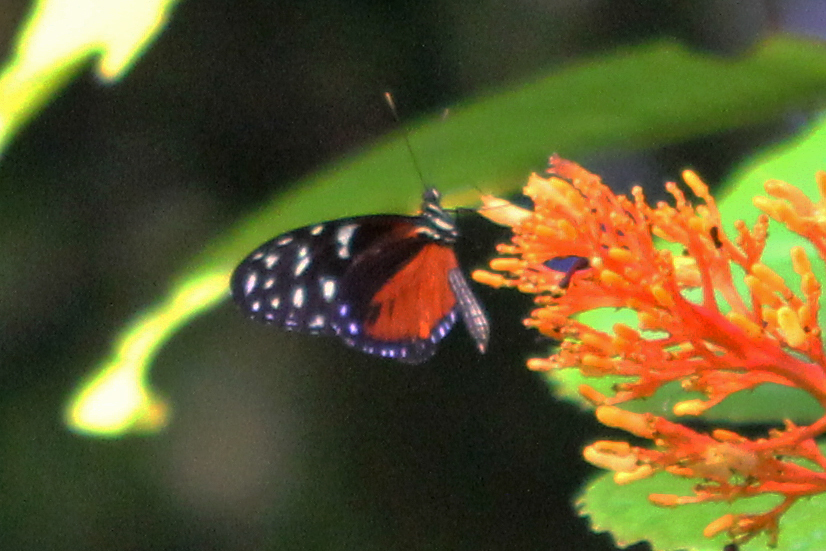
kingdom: Animalia
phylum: Arthropoda
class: Insecta
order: Lepidoptera
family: Nymphalidae
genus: Heliconius
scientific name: Heliconius hecale
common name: Tiger longwing
